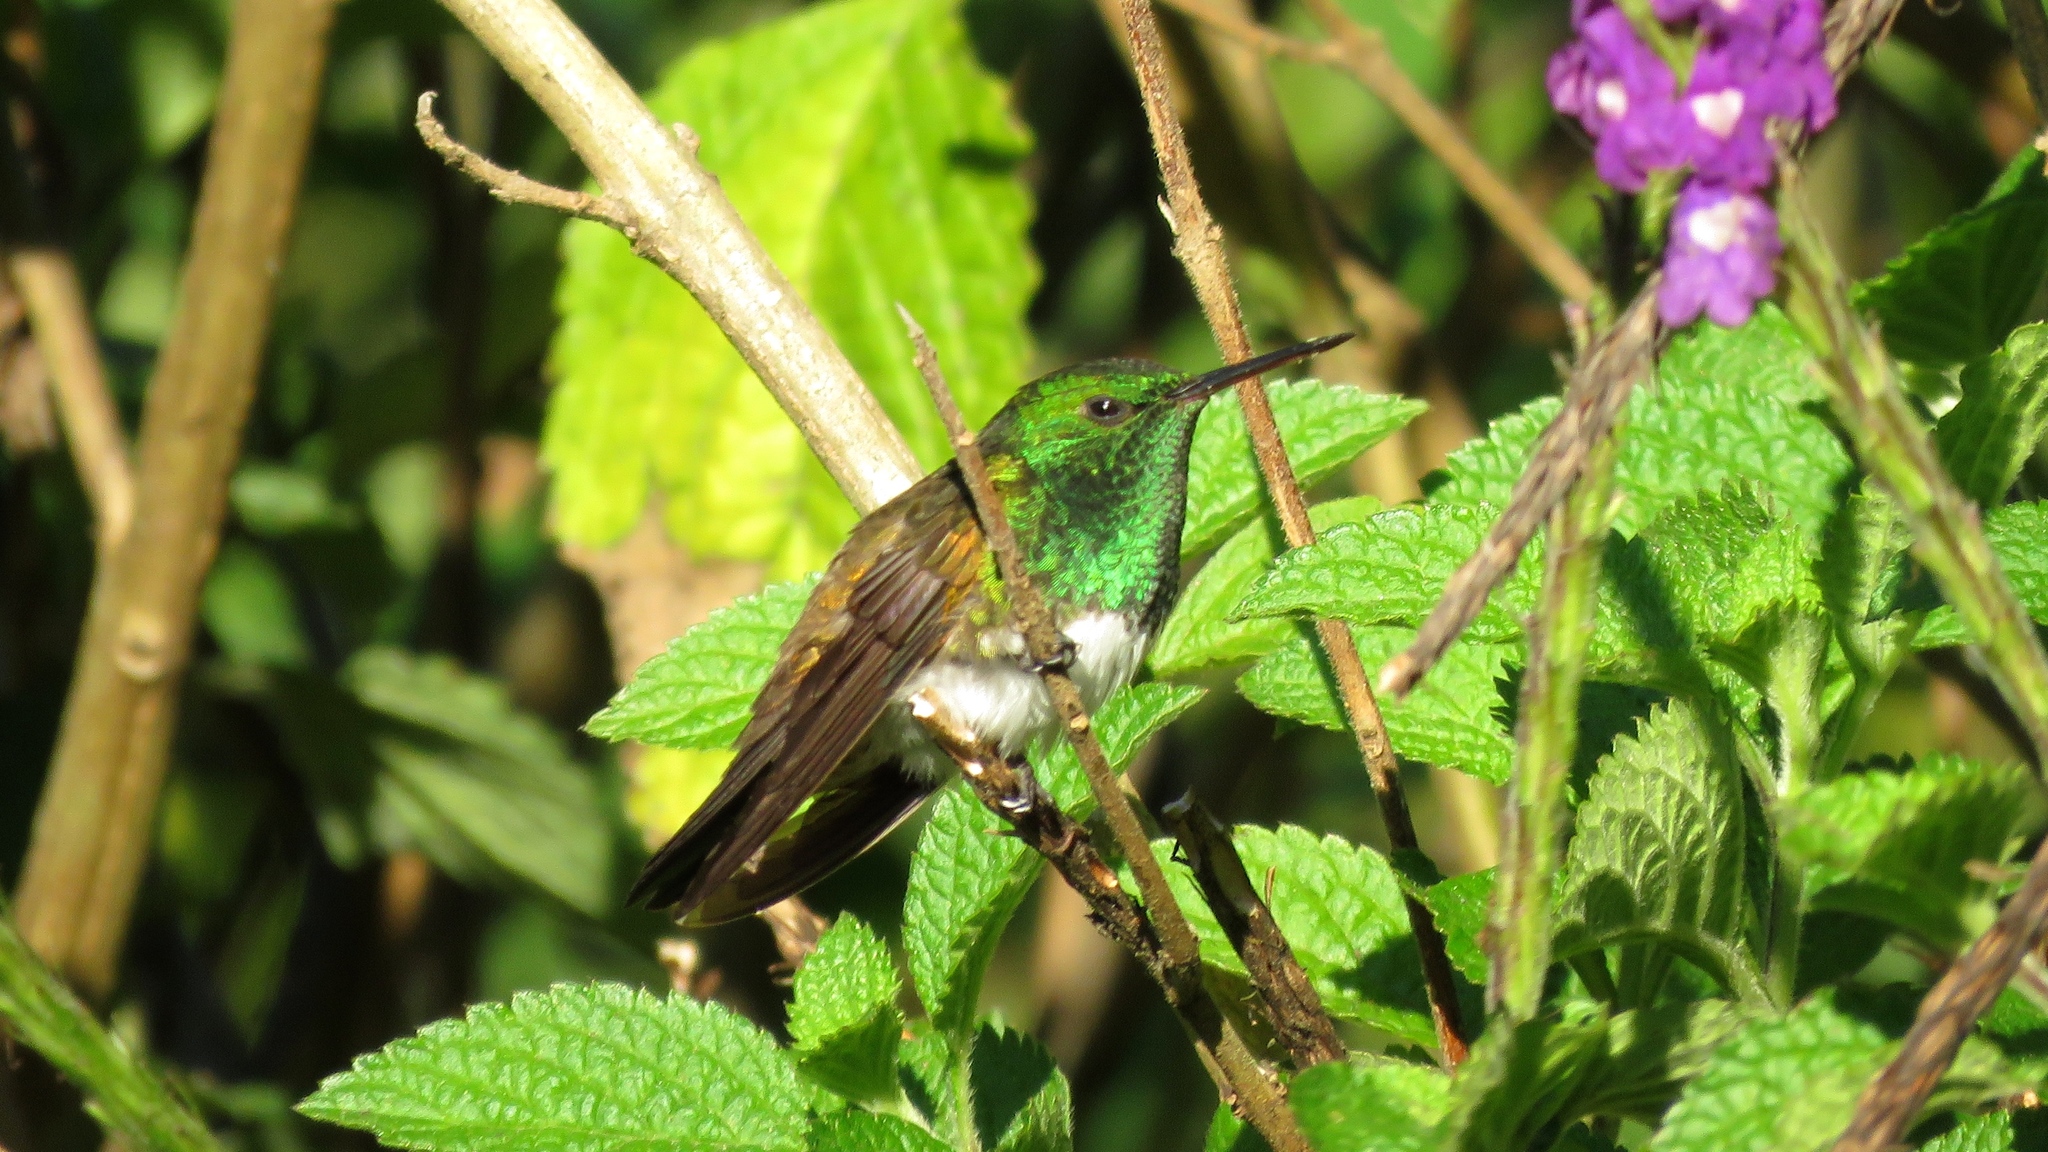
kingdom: Animalia
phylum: Chordata
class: Aves
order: Apodiformes
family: Trochilidae
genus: Saucerottia
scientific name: Saucerottia edward
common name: Snowy-bellied hummingbird
